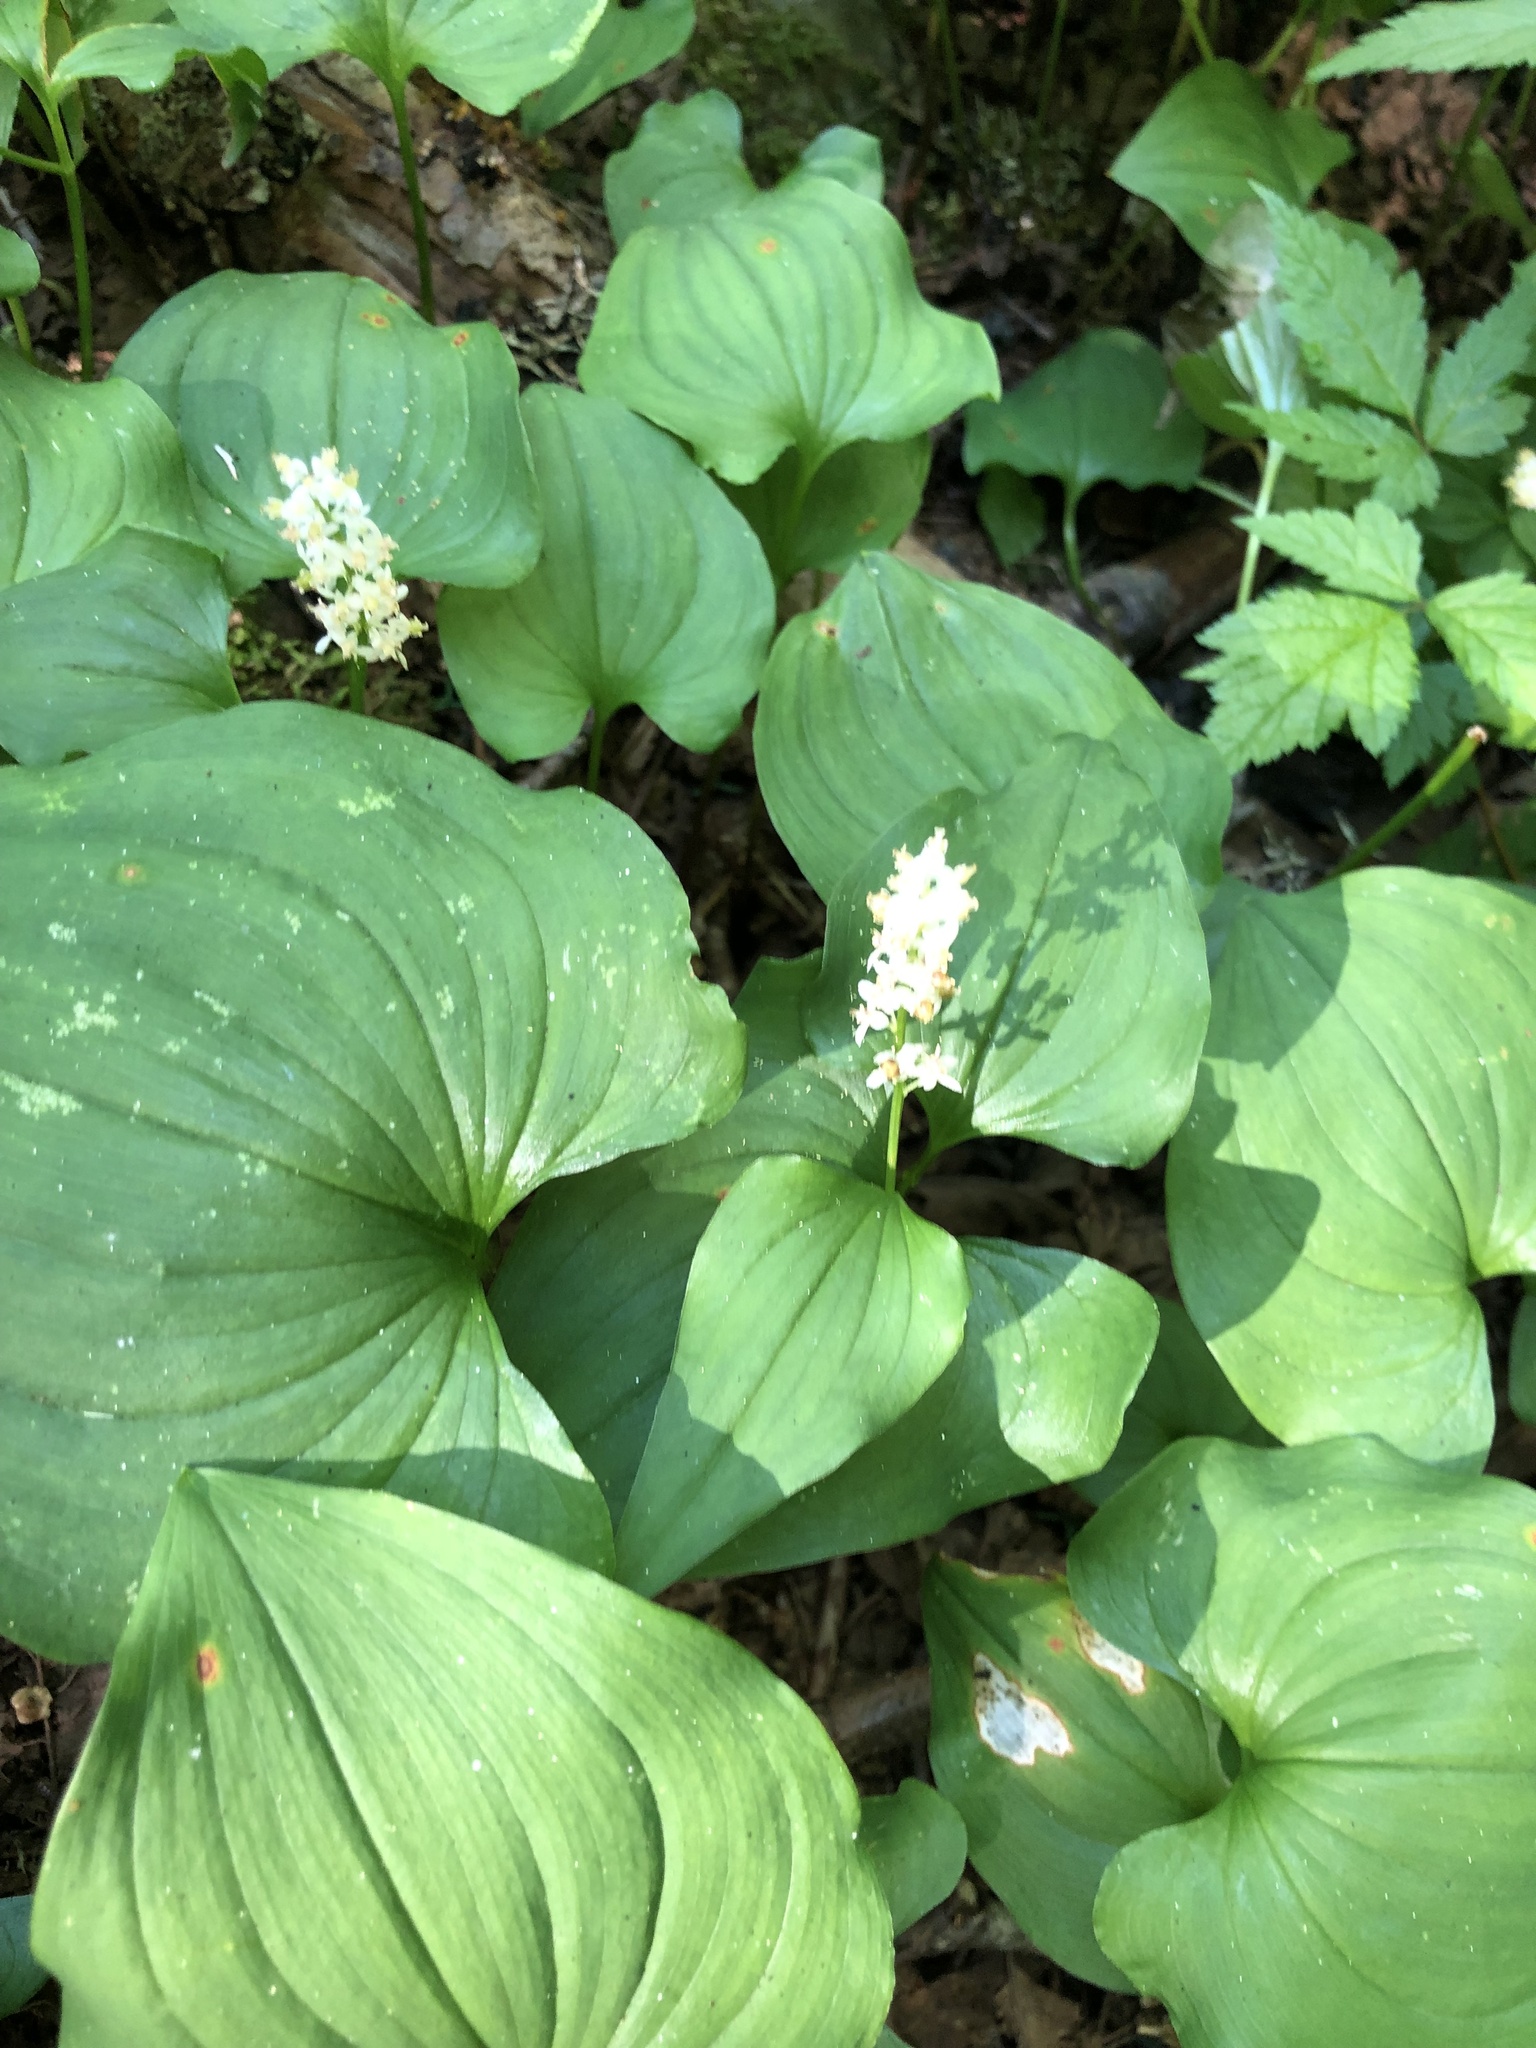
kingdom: Plantae
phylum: Tracheophyta
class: Liliopsida
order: Asparagales
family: Asparagaceae
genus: Maianthemum
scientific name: Maianthemum dilatatum
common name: False lily-of-the-valley
